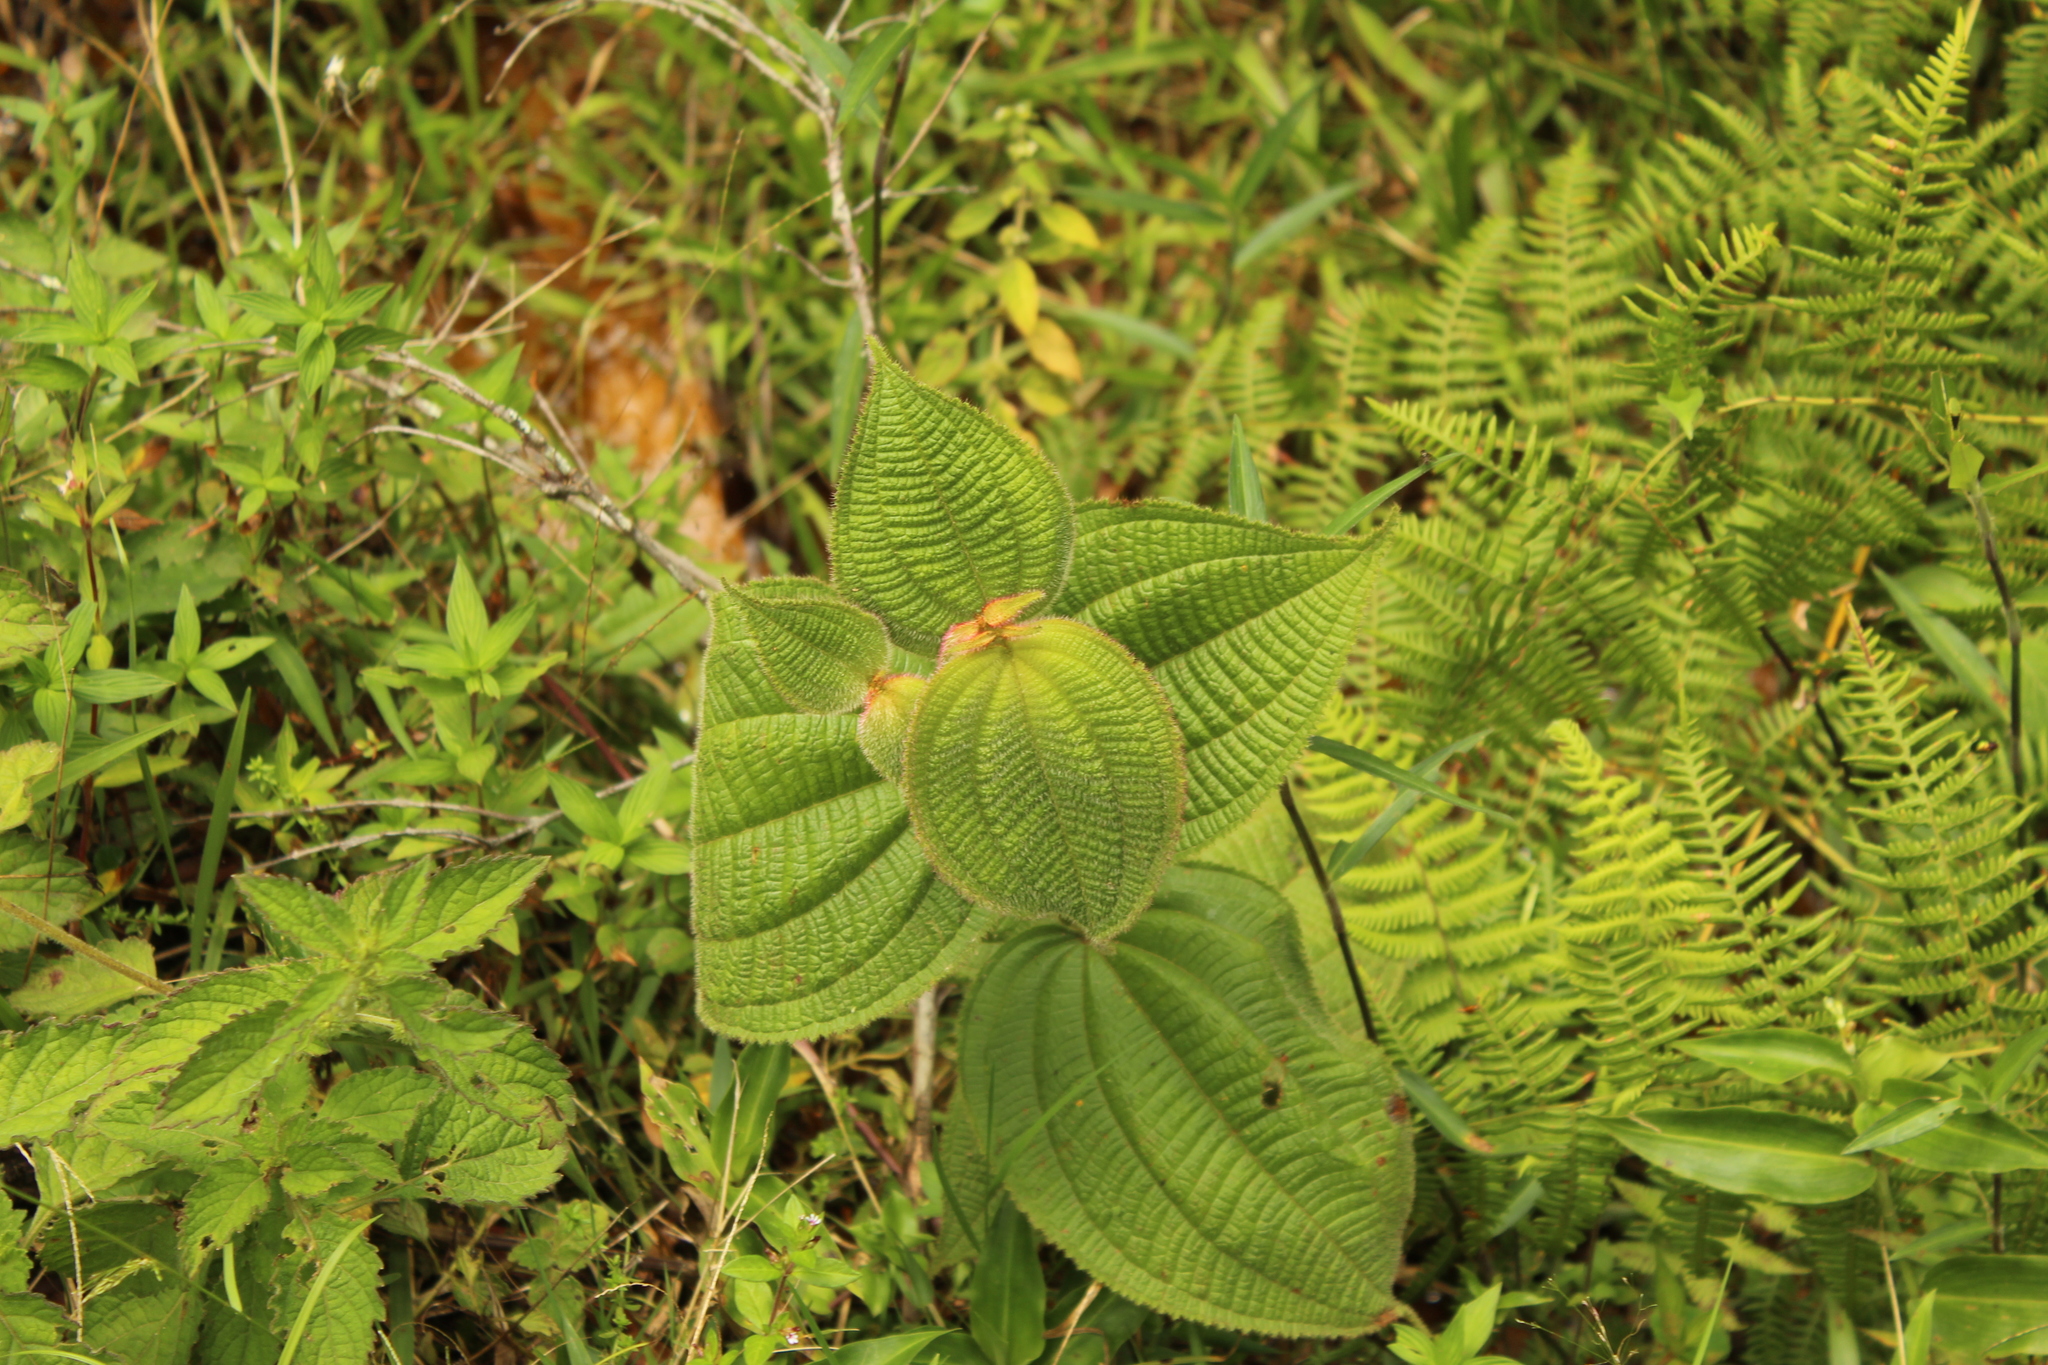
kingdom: Plantae
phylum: Tracheophyta
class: Magnoliopsida
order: Myrtales
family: Melastomataceae
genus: Miconia
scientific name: Miconia domociliata
